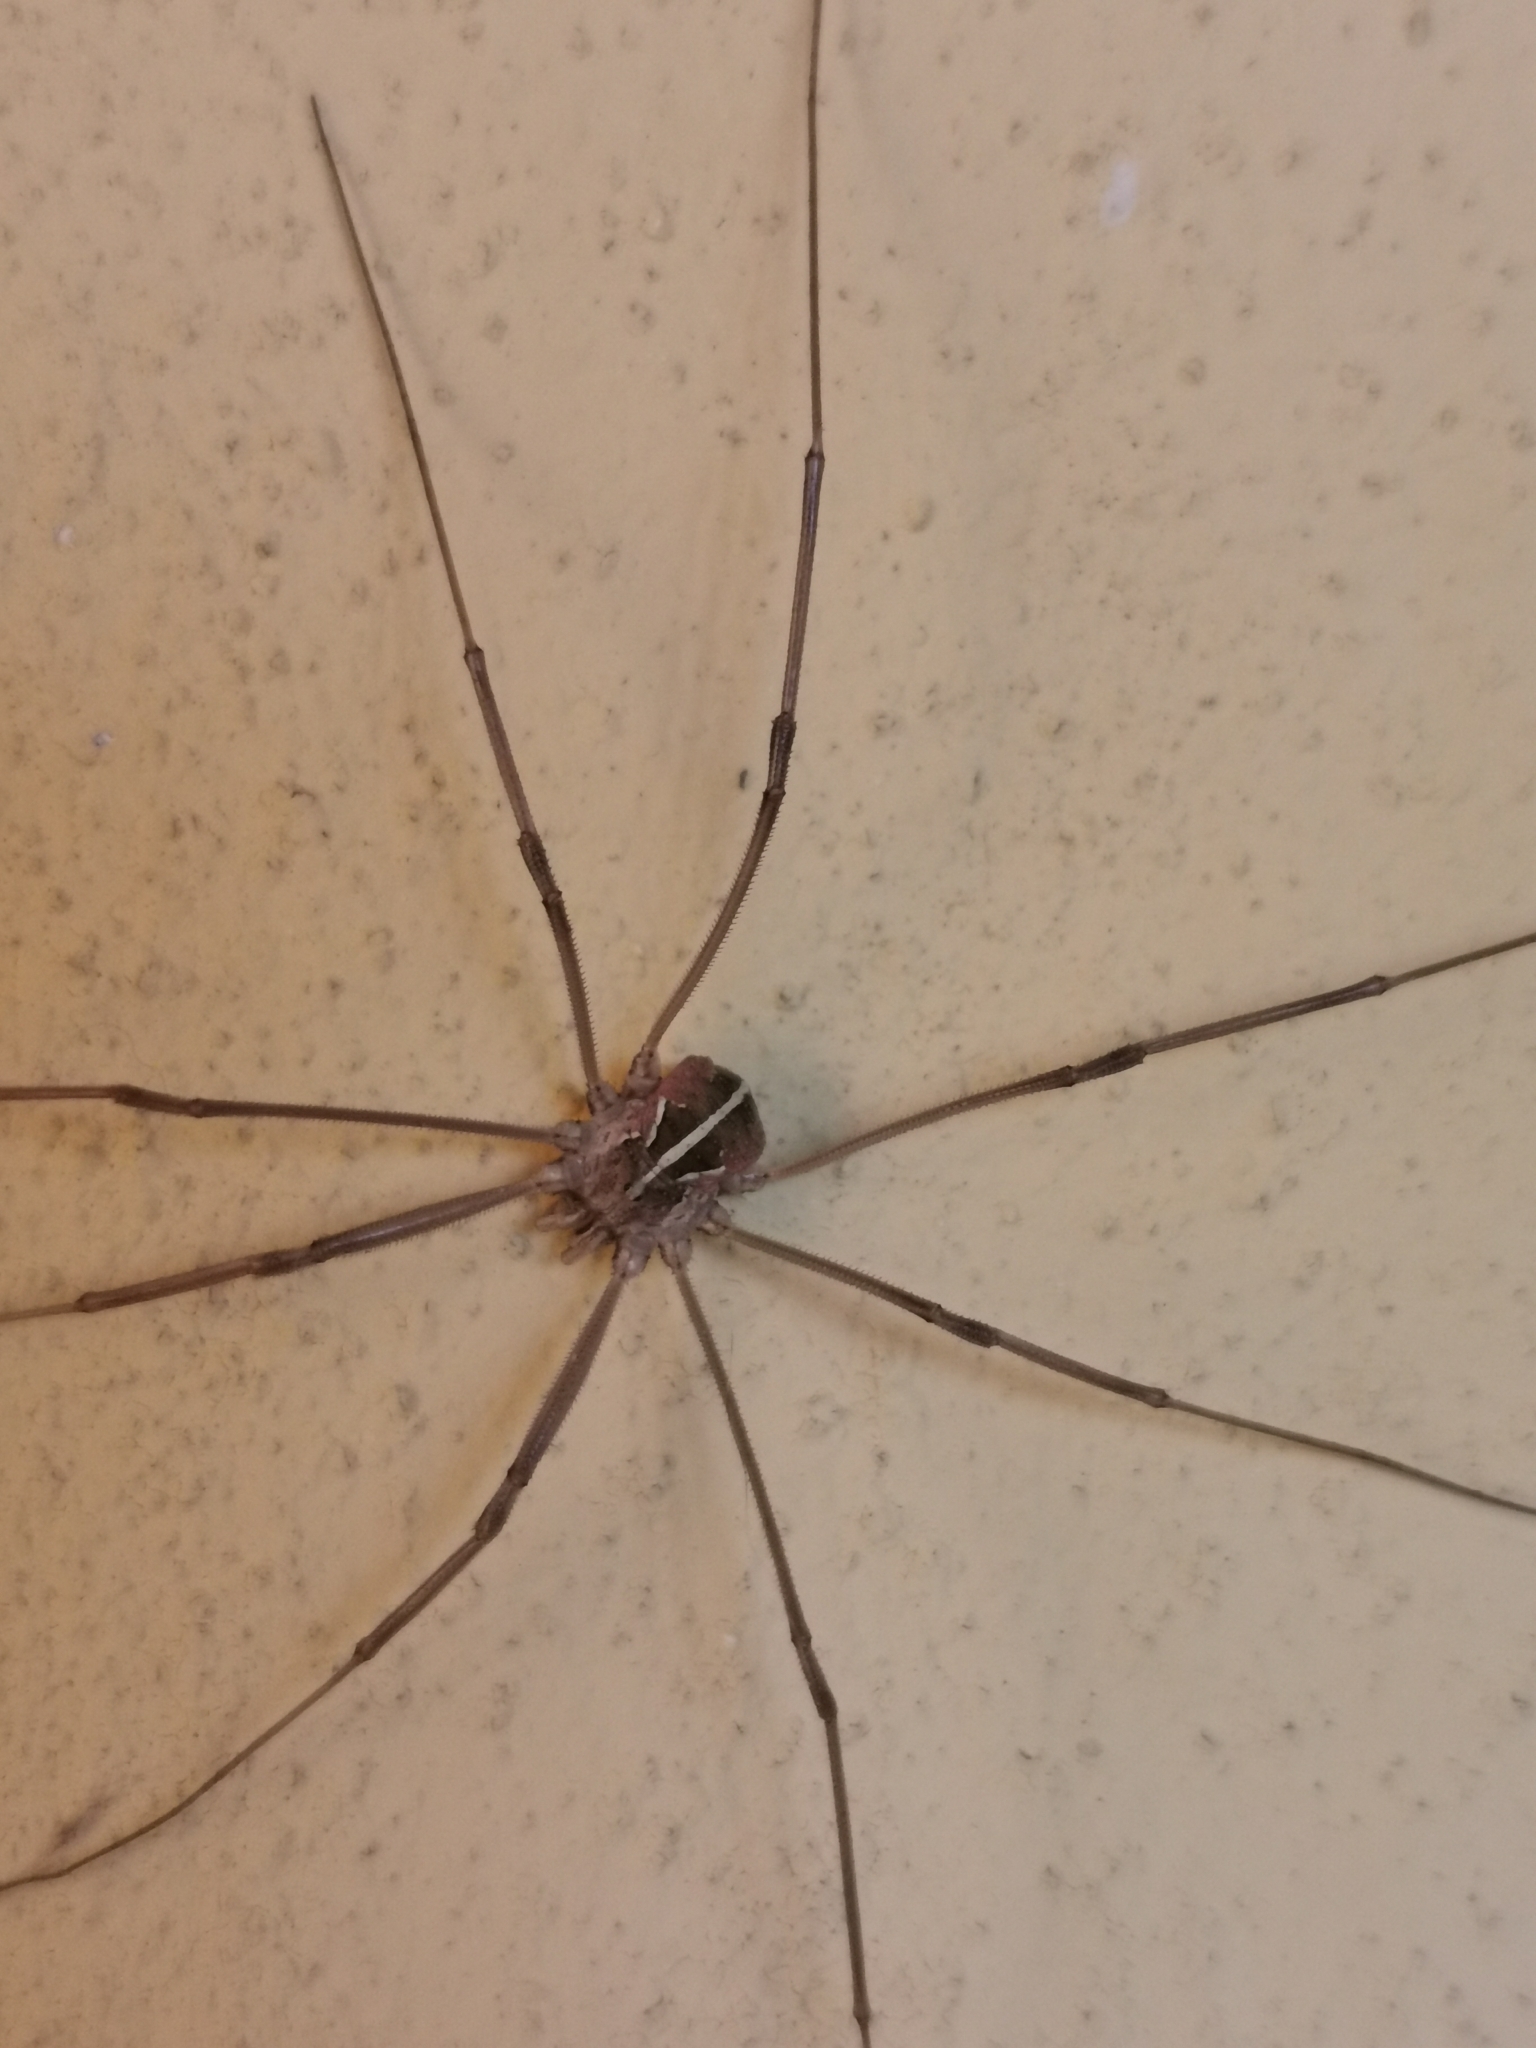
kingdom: Animalia
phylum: Arthropoda
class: Arachnida
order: Opiliones
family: Phalangiidae
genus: Metaphalangium
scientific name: Metaphalangium cirtanum
